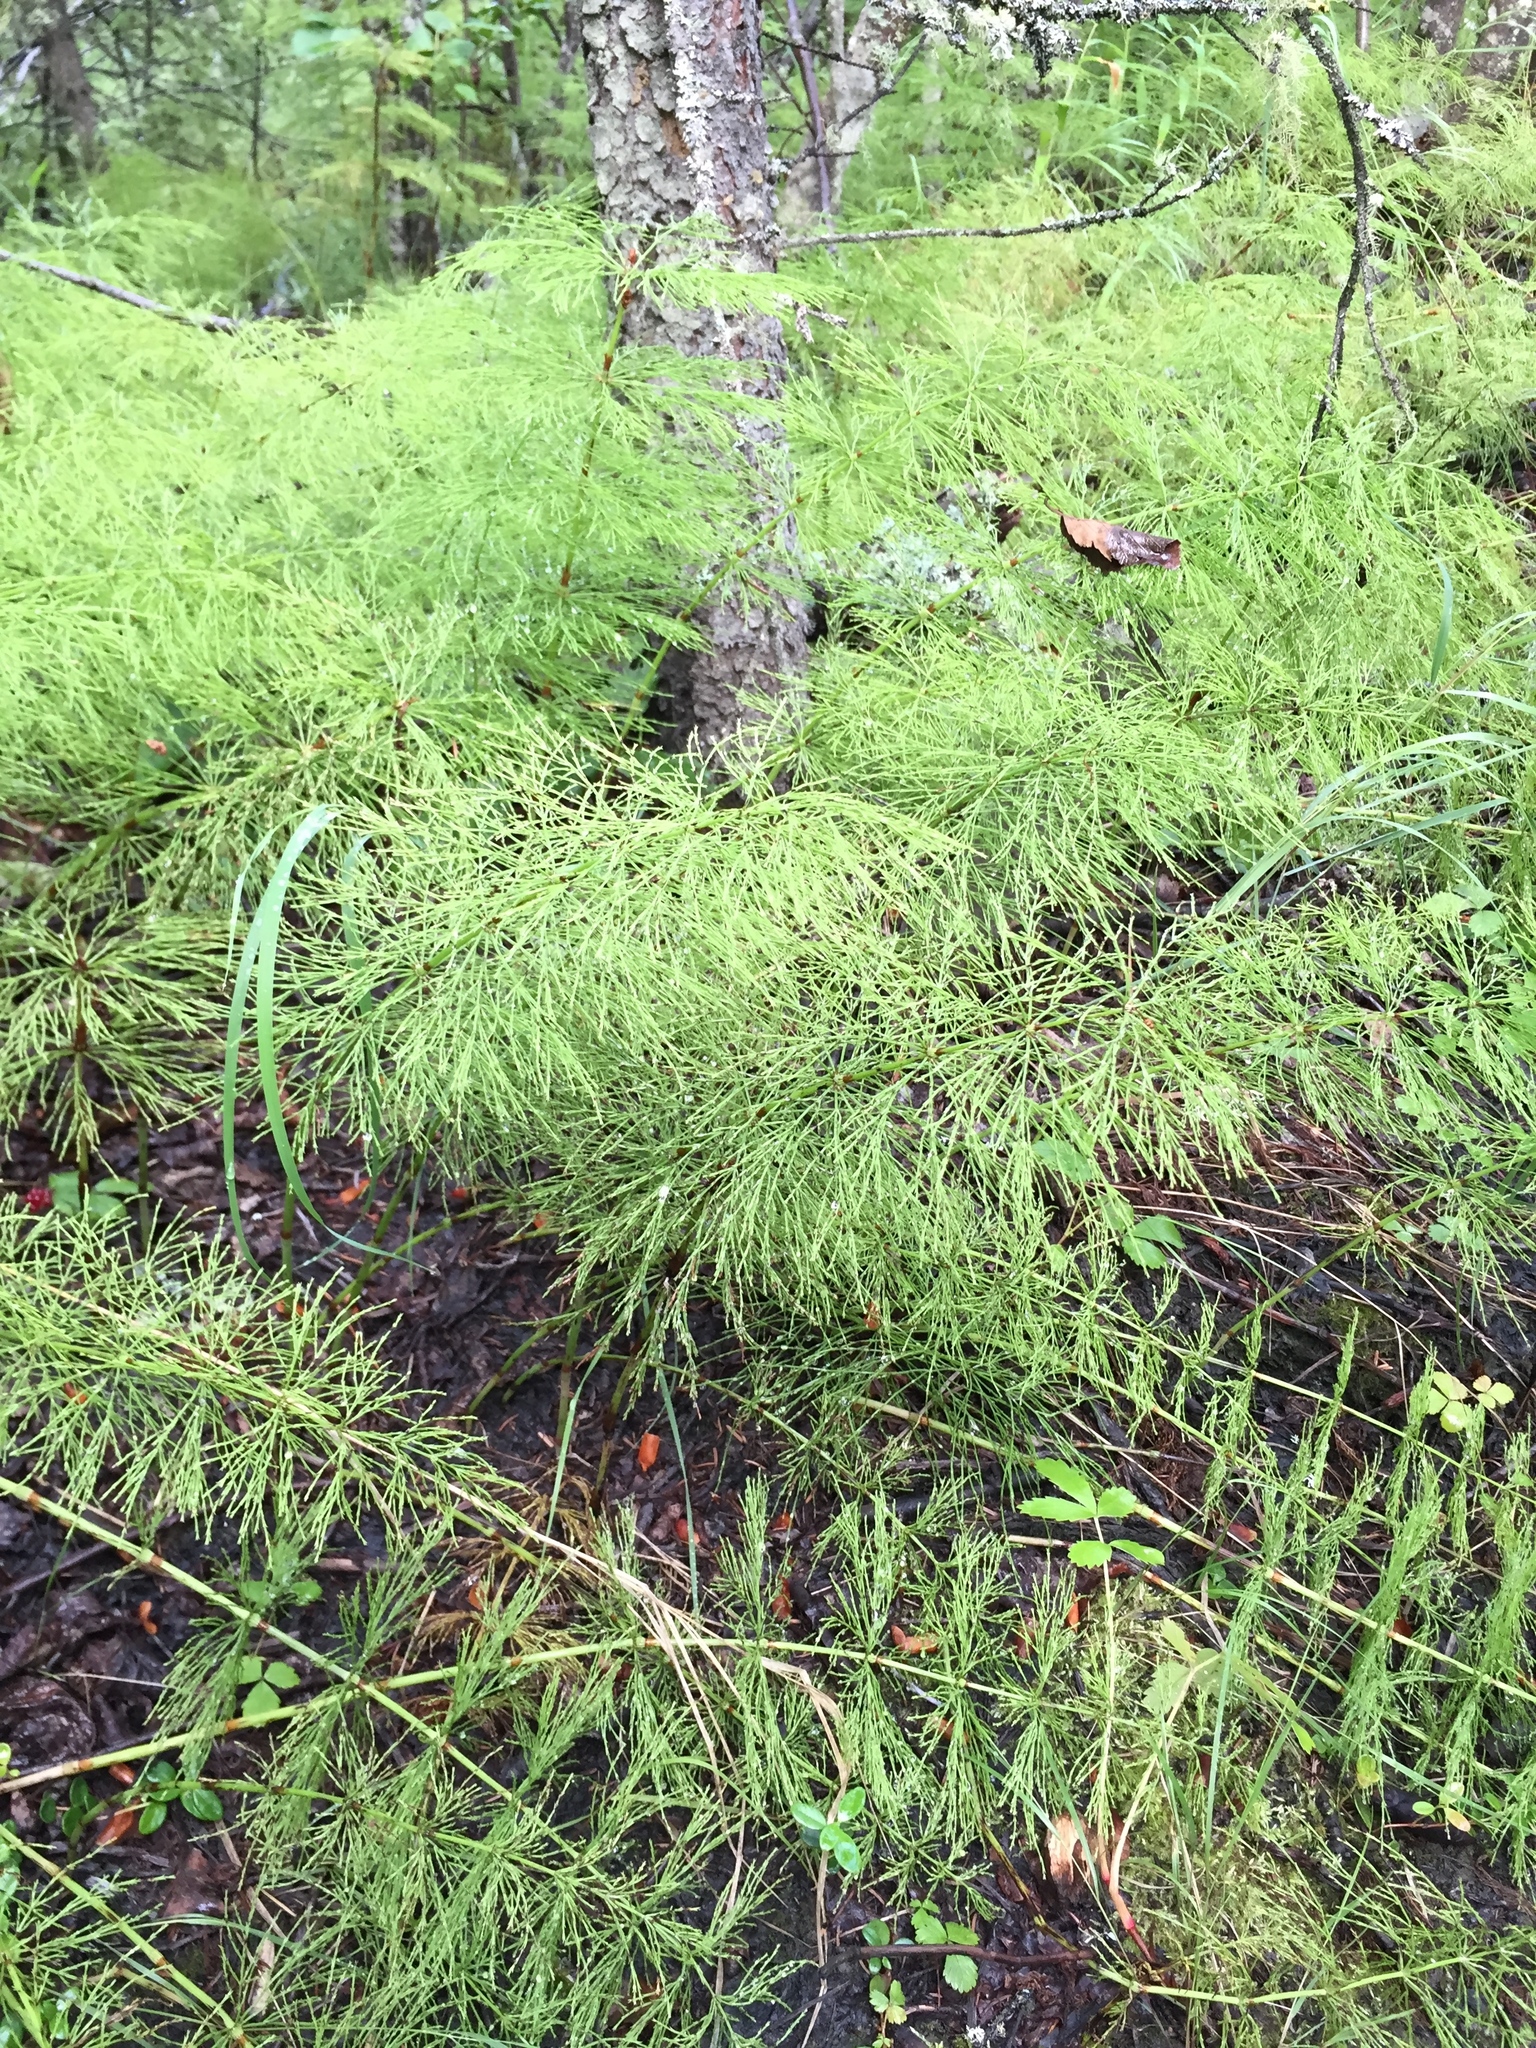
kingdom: Plantae
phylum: Tracheophyta
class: Polypodiopsida
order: Equisetales
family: Equisetaceae
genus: Equisetum
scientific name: Equisetum sylvaticum
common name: Wood horsetail
